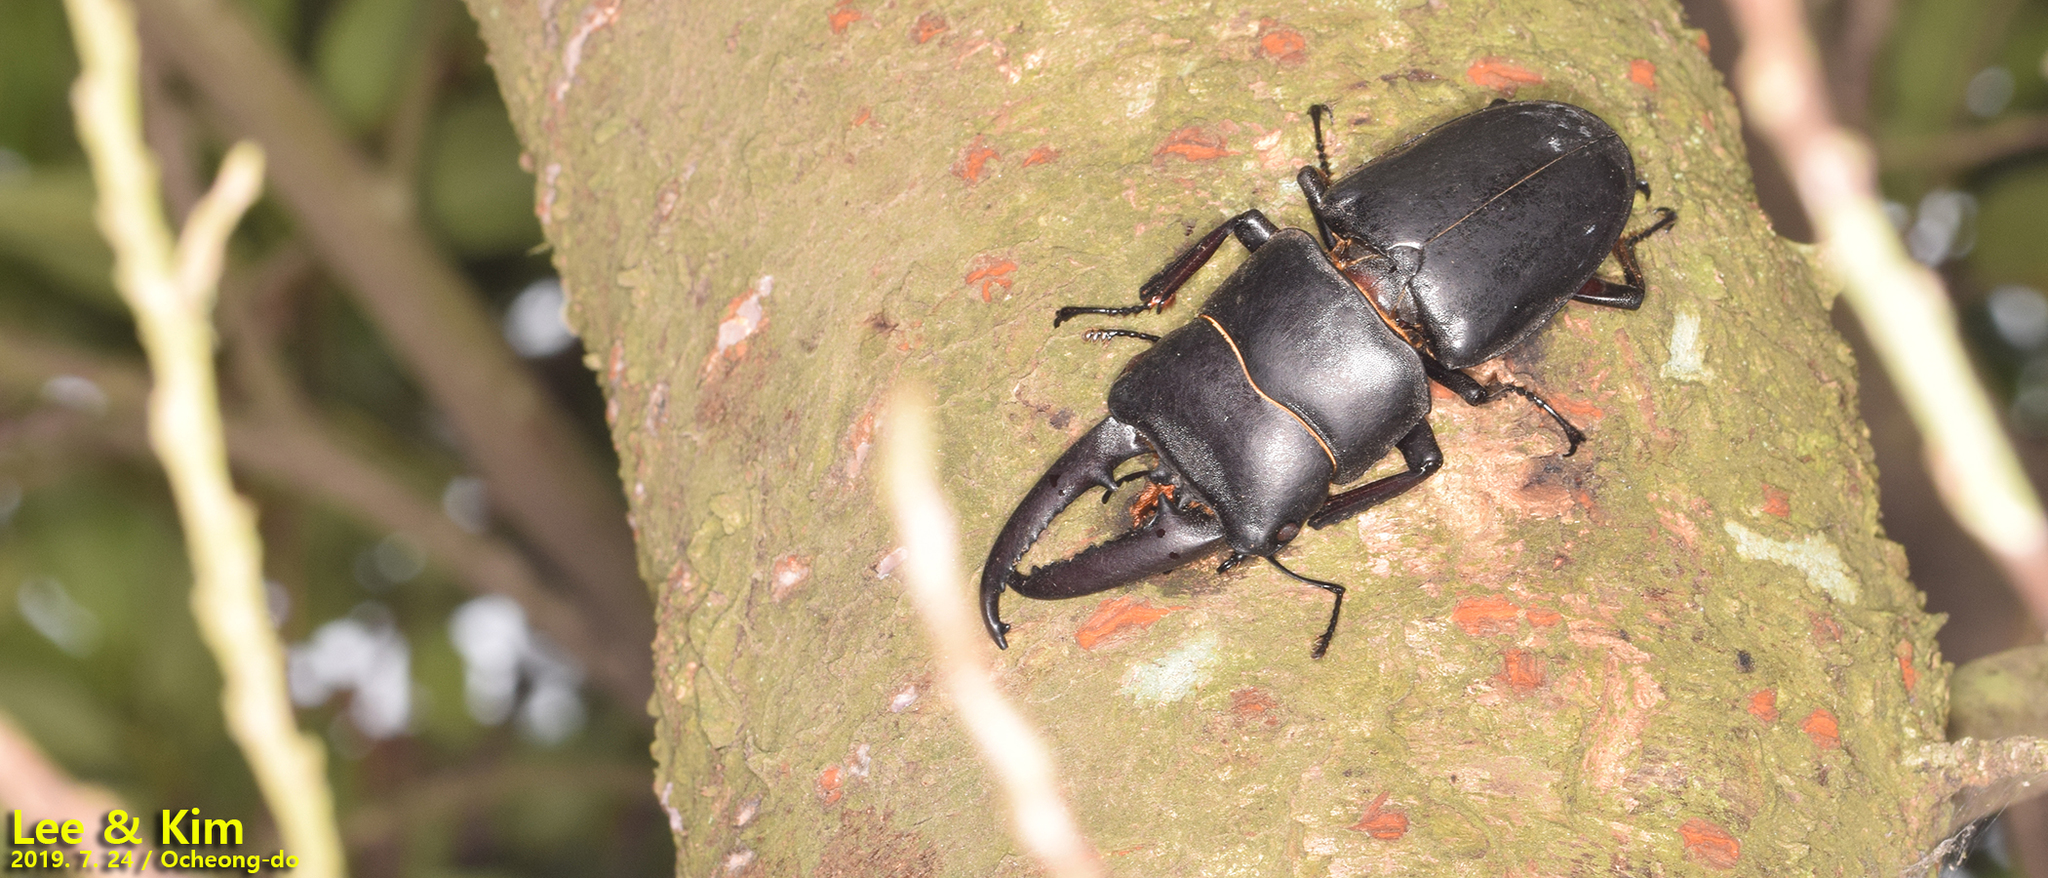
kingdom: Animalia
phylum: Arthropoda
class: Insecta
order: Coleoptera
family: Lucanidae
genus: Serrognathus
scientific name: Serrognathus titanus
